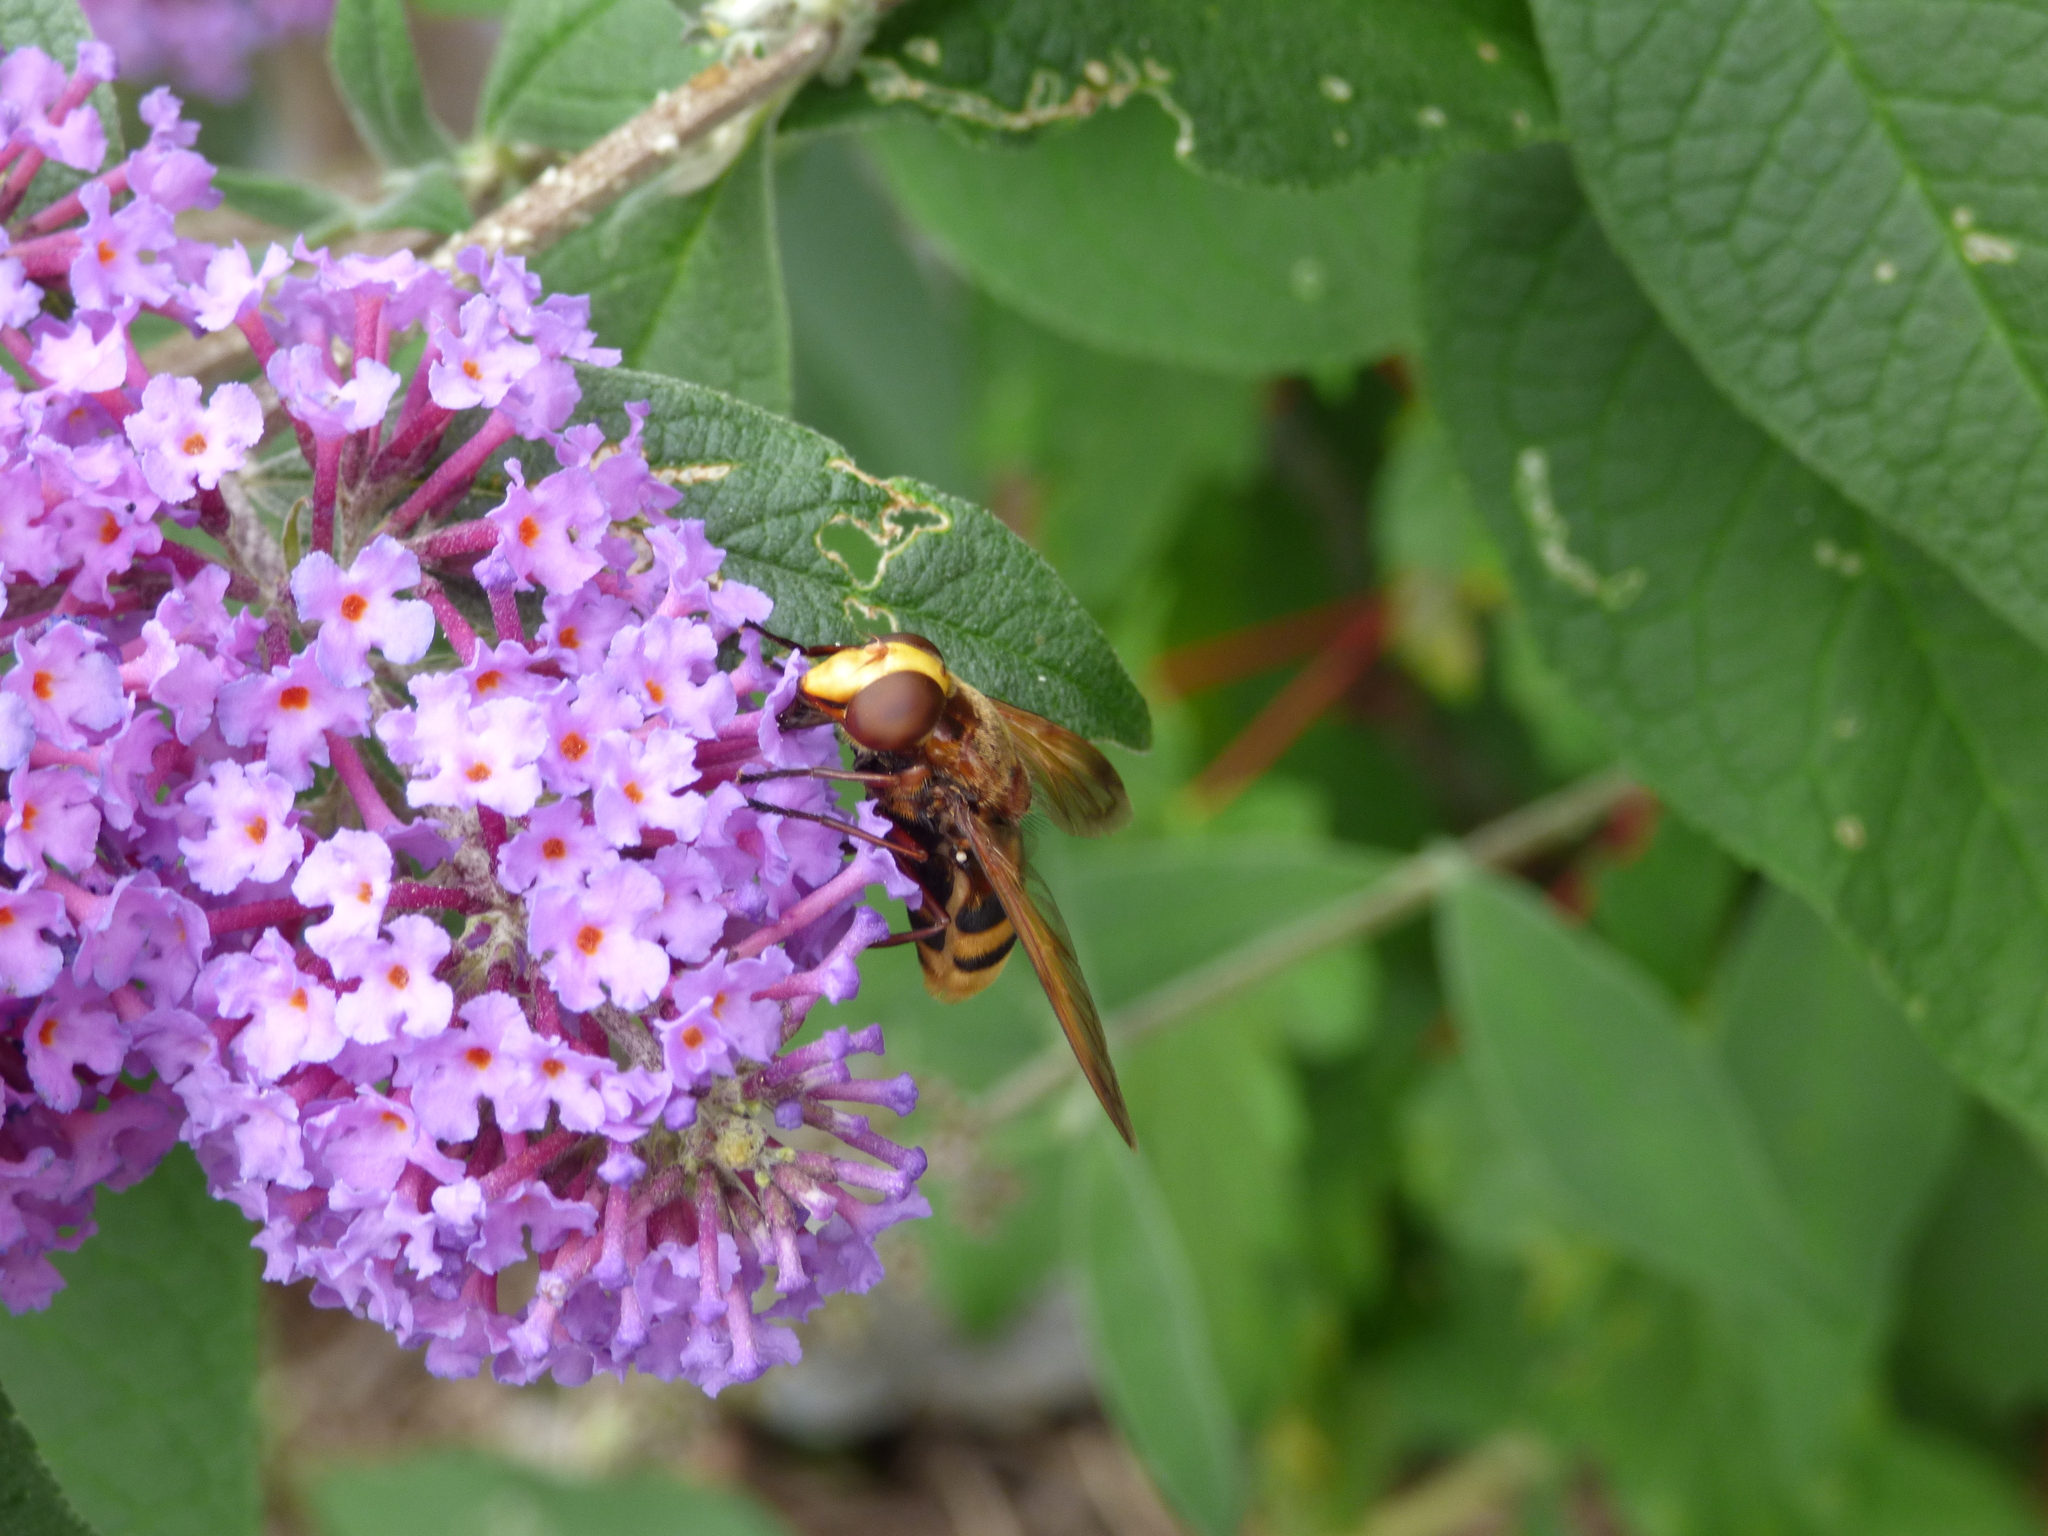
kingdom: Animalia
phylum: Arthropoda
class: Insecta
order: Diptera
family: Syrphidae
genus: Volucella
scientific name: Volucella zonaria
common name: Hornet hoverfly
